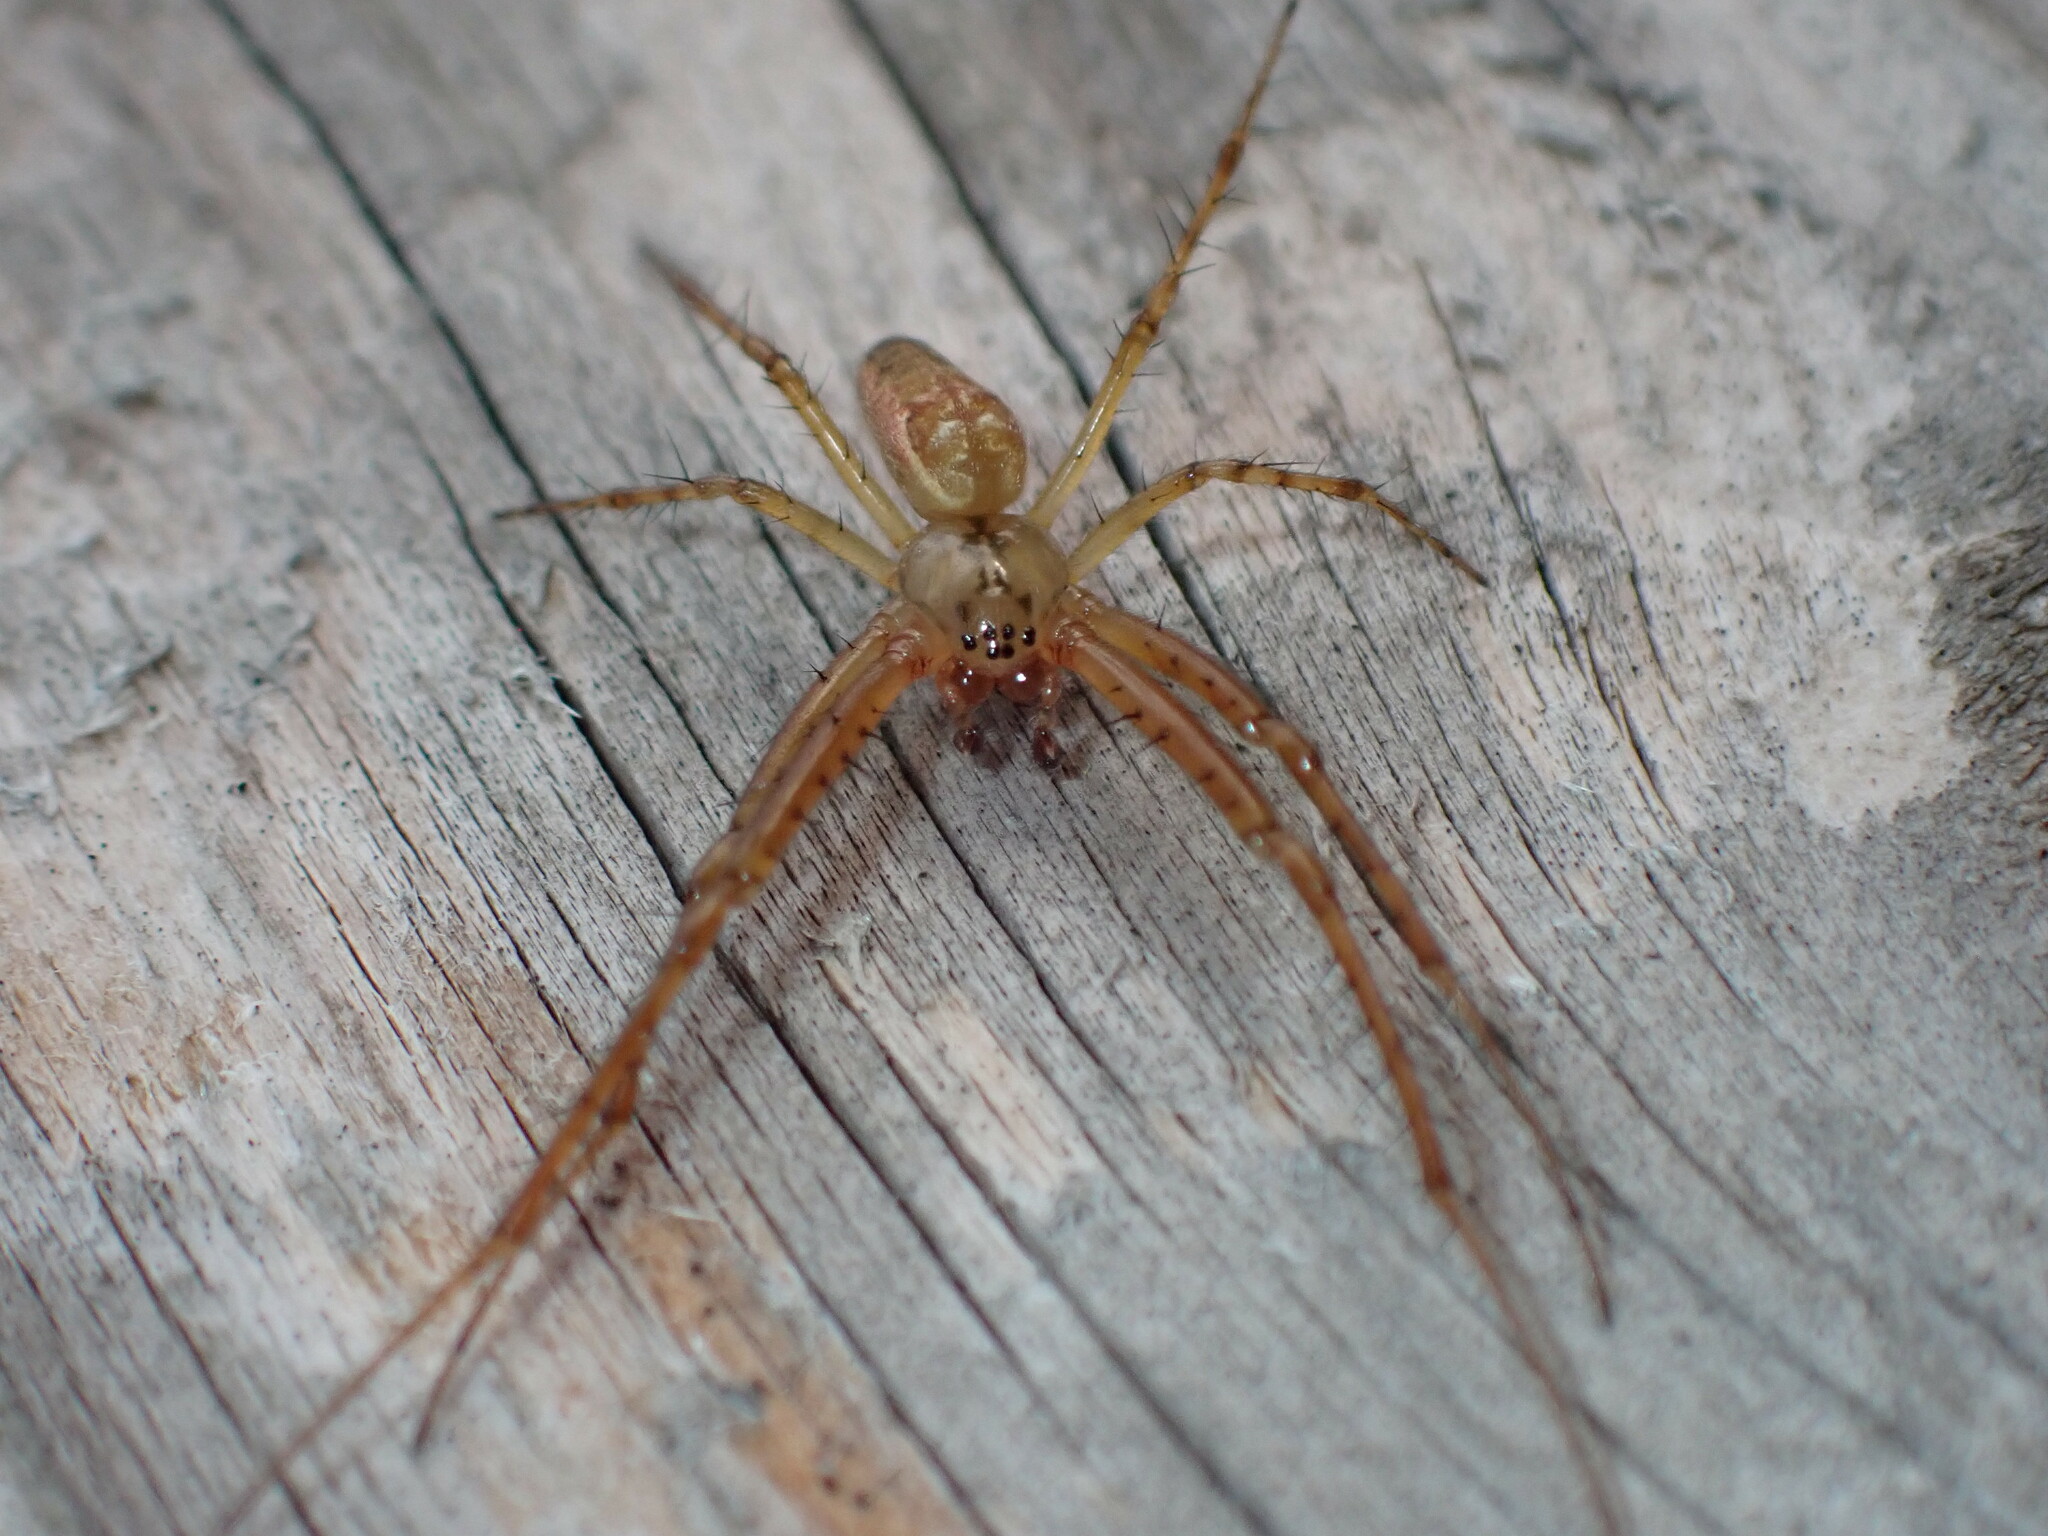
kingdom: Animalia
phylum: Arthropoda
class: Arachnida
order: Araneae
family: Tetragnathidae
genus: Metellina
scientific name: Metellina segmentata
